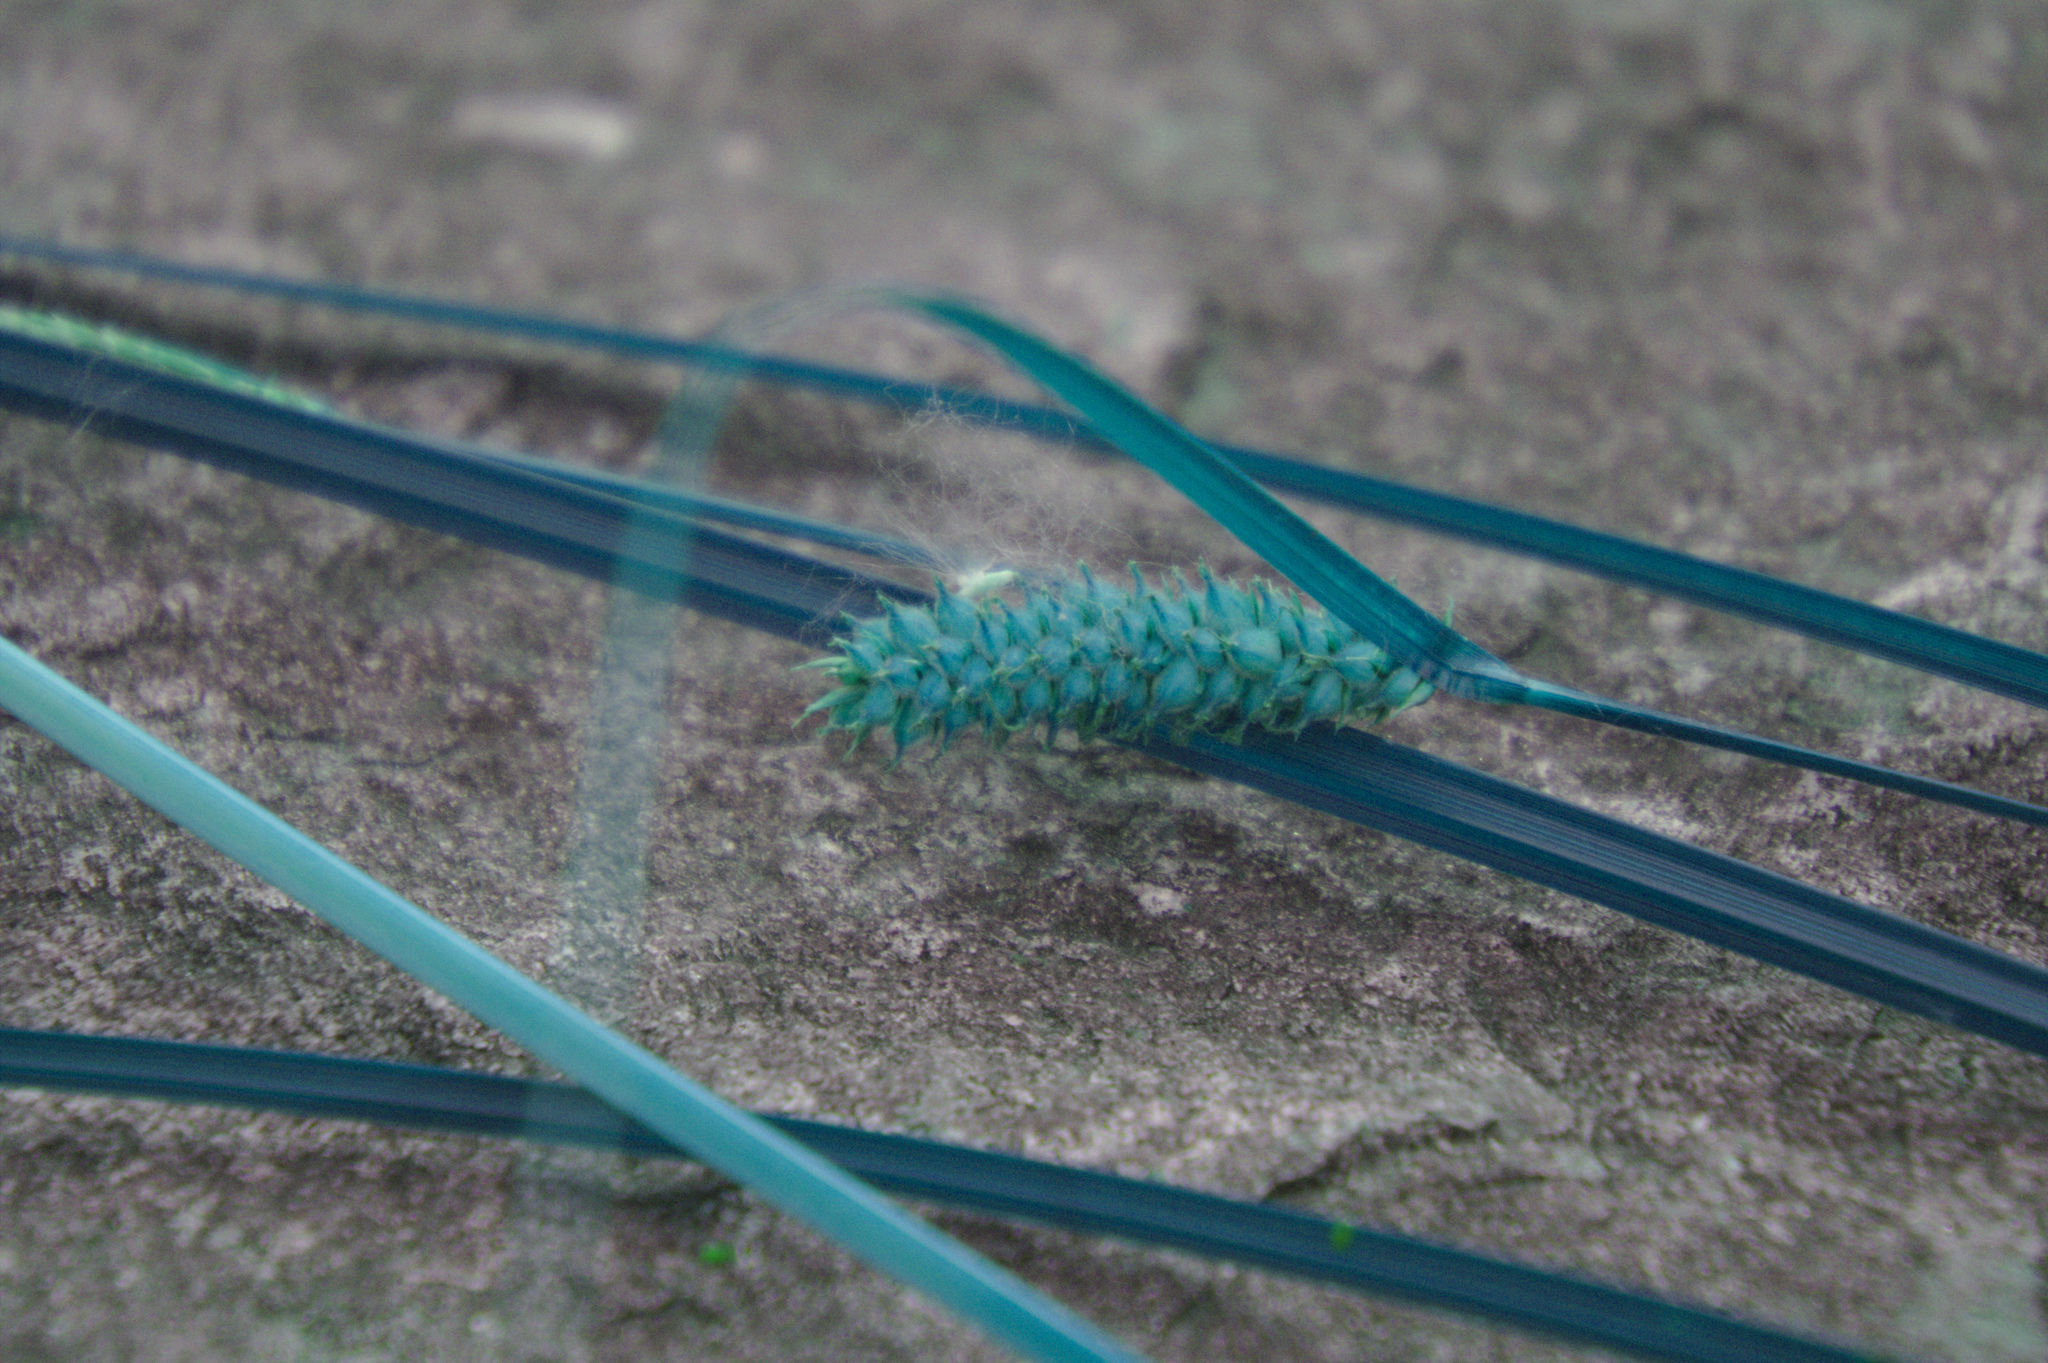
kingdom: Plantae
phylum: Tracheophyta
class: Liliopsida
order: Poales
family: Cyperaceae
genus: Carex
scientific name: Carex pellita
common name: Woolly sedge
